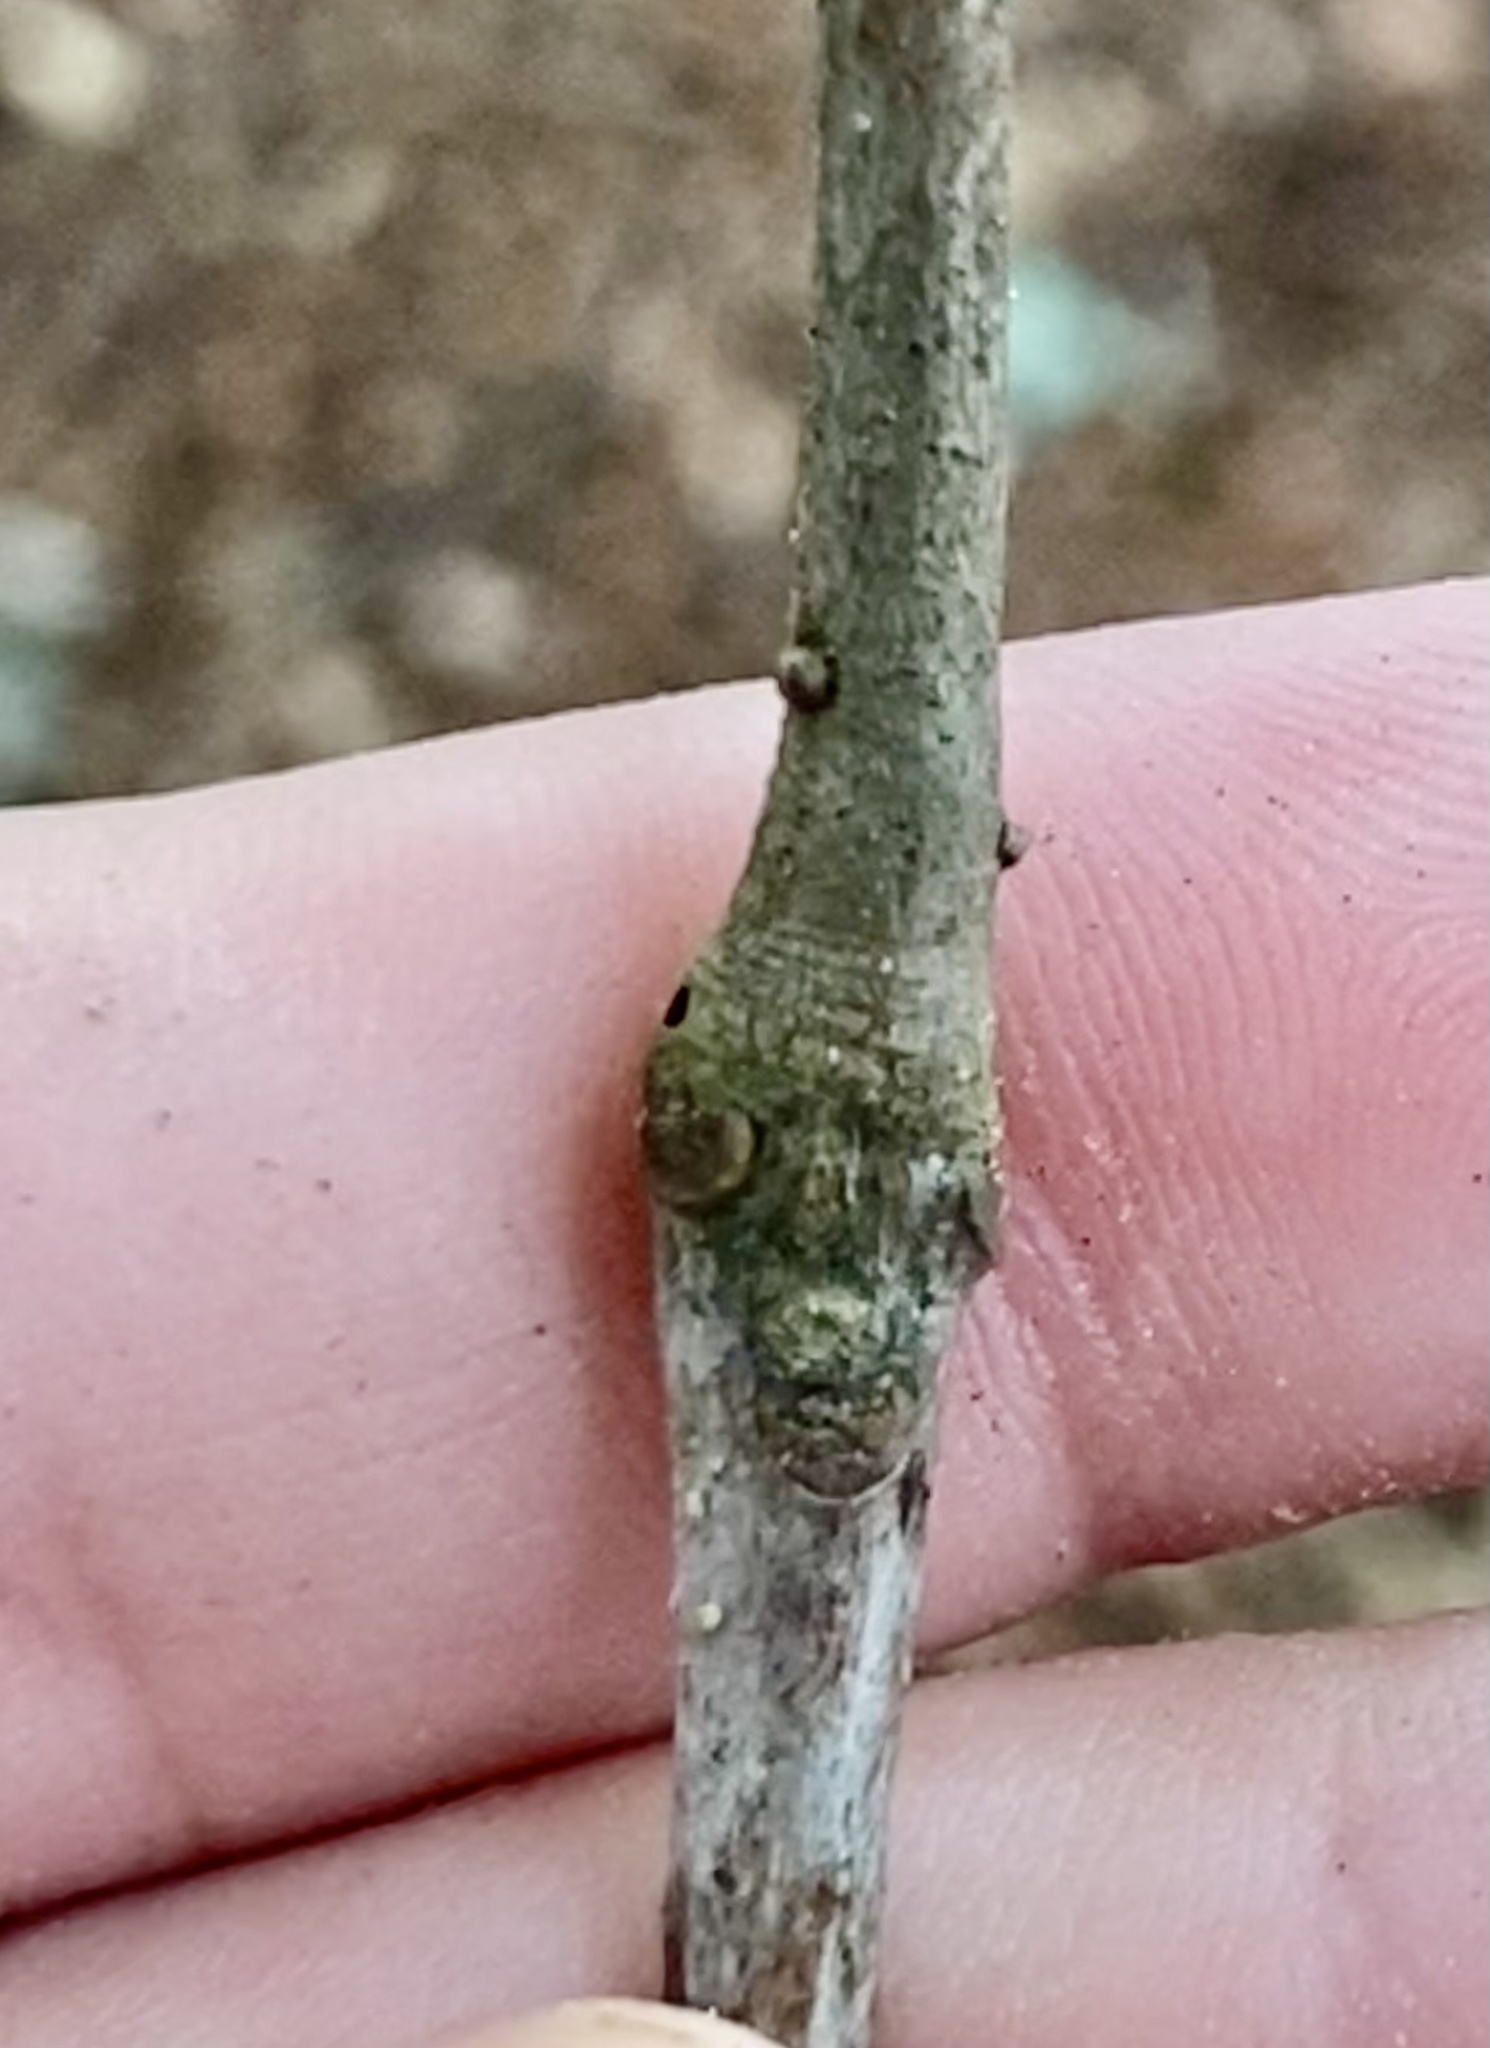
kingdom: Animalia
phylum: Arthropoda
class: Insecta
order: Hymenoptera
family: Cynipidae
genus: Zapatella
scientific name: Zapatella
